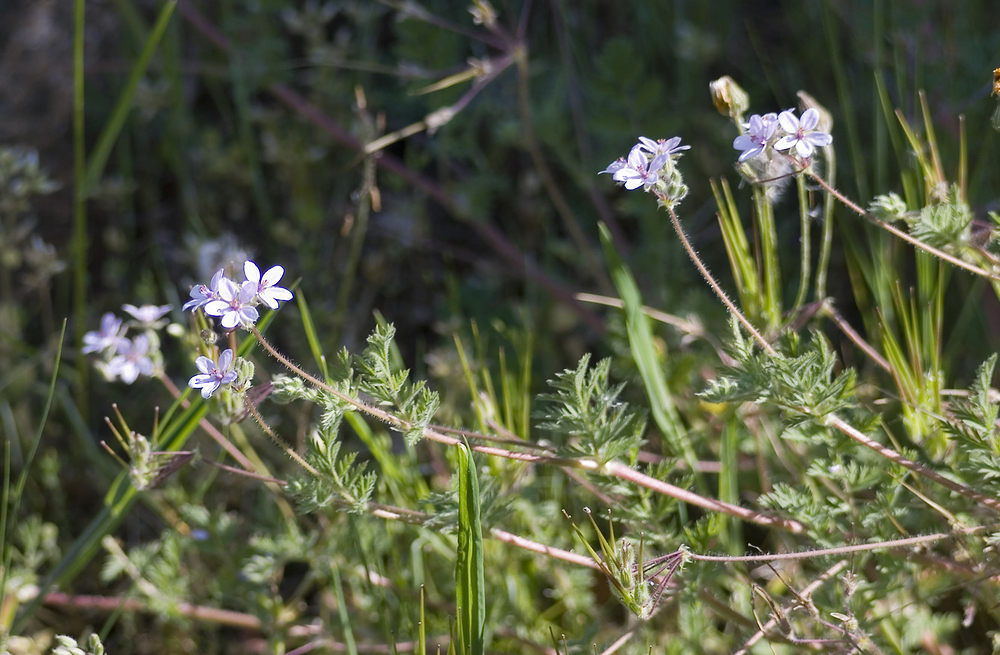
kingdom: Plantae
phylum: Tracheophyta
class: Magnoliopsida
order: Geraniales
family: Geraniaceae
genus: Erodium
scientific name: Erodium cicutarium
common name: Common stork's-bill
